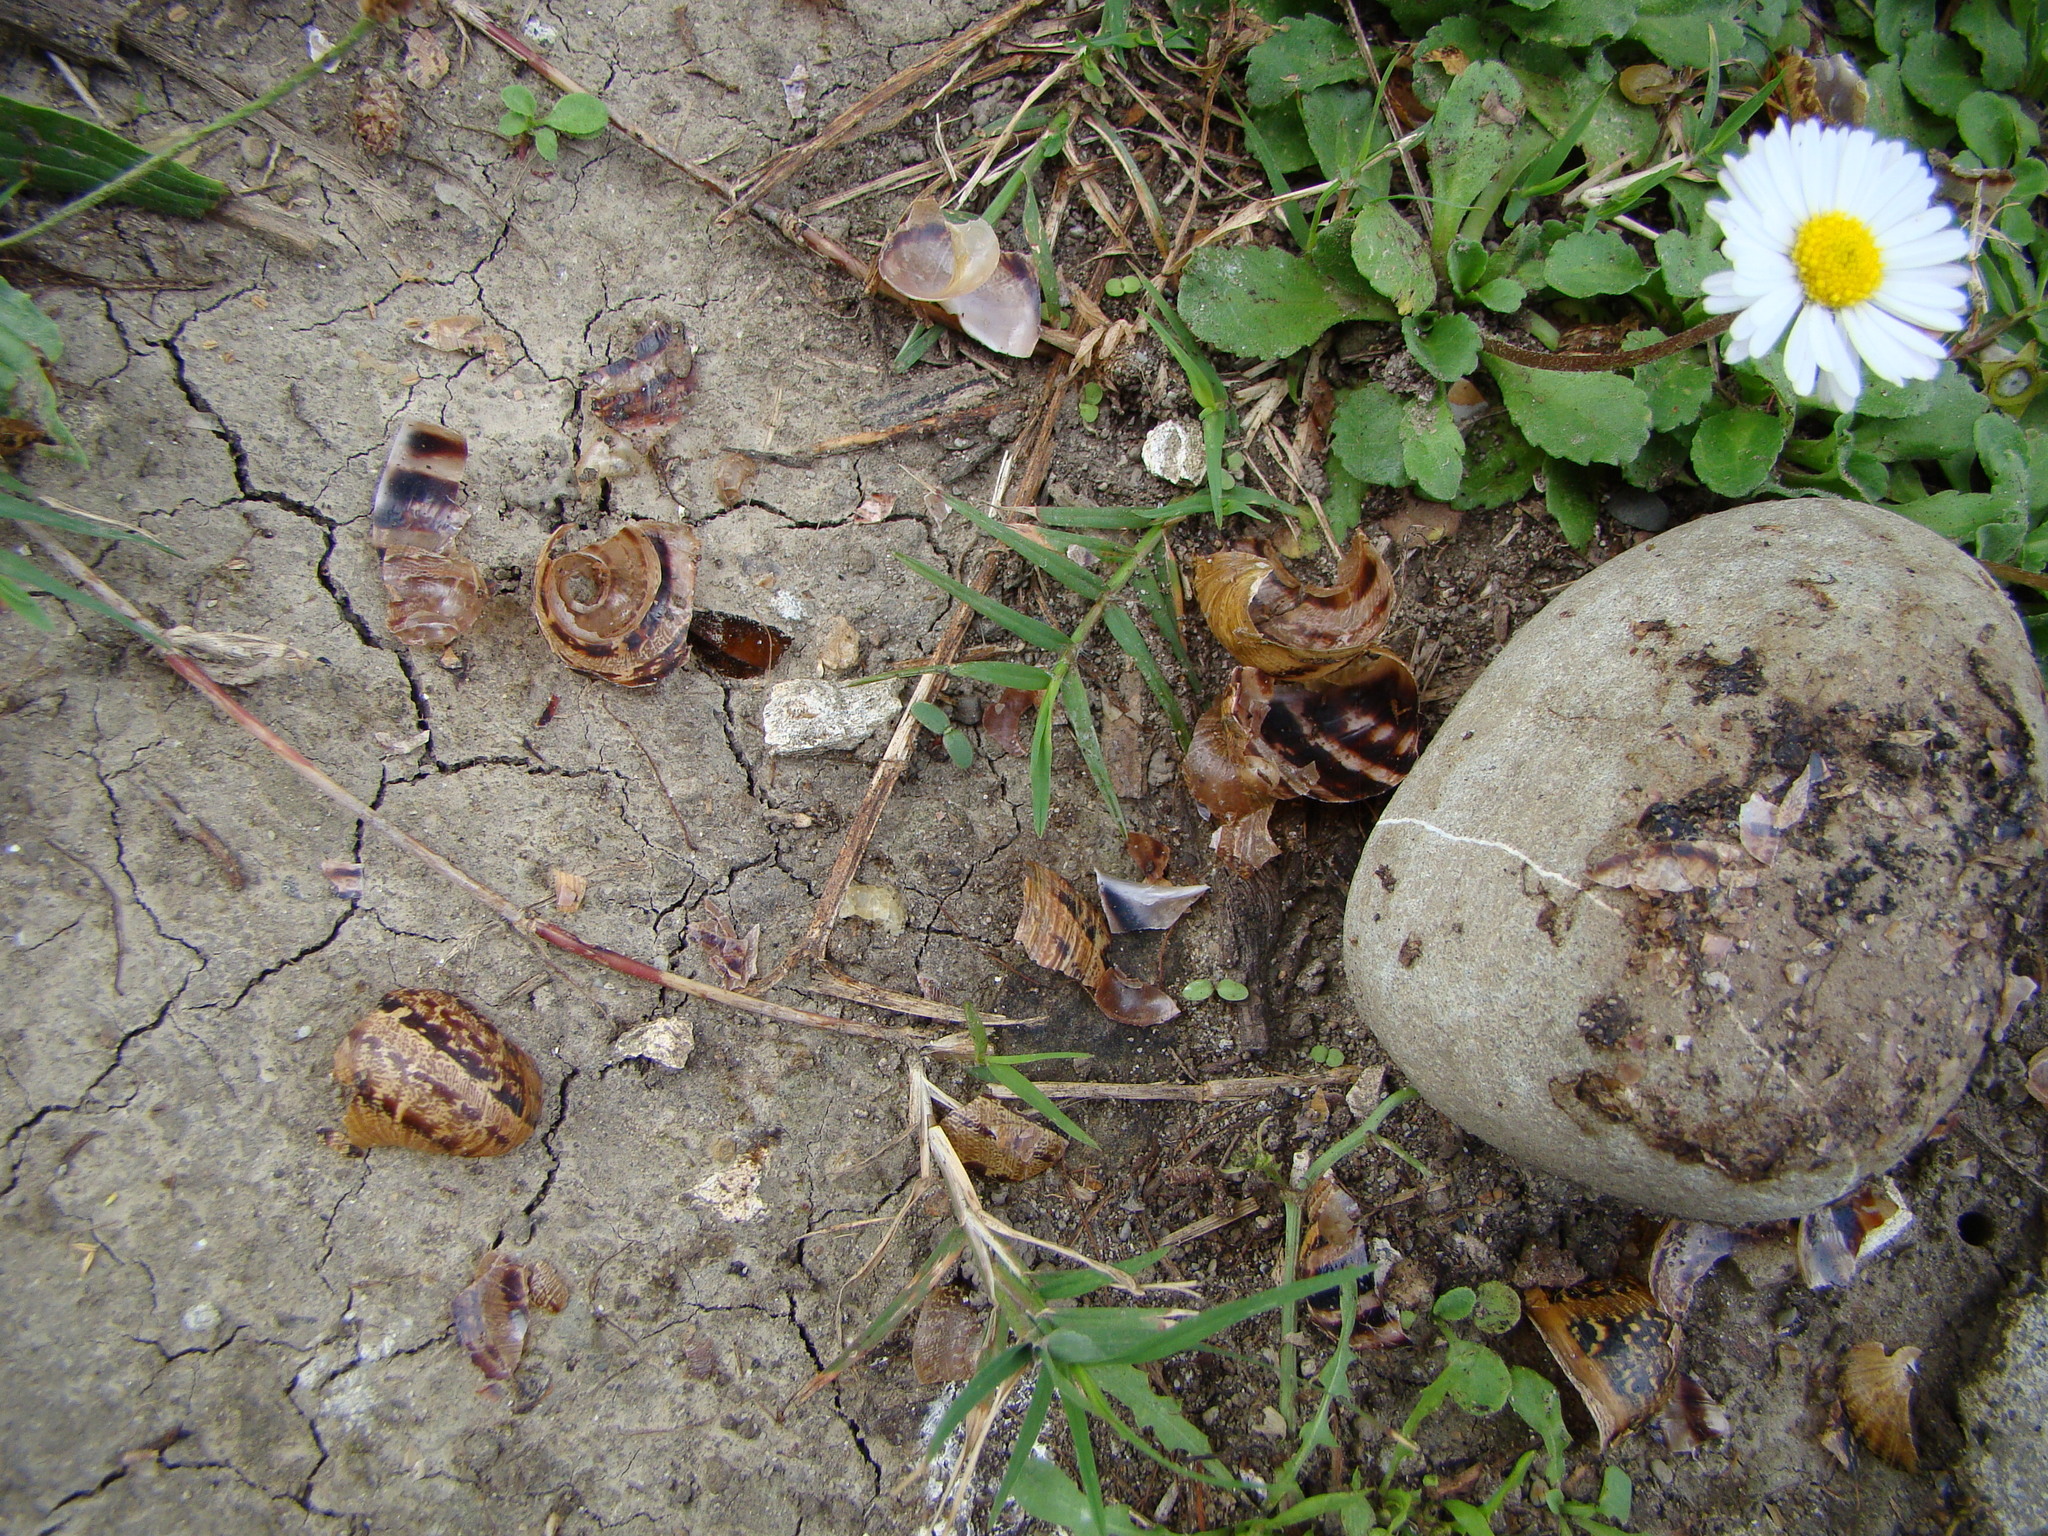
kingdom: Animalia
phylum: Mollusca
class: Gastropoda
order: Stylommatophora
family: Helicidae
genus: Cornu
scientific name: Cornu aspersum
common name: Brown garden snail
